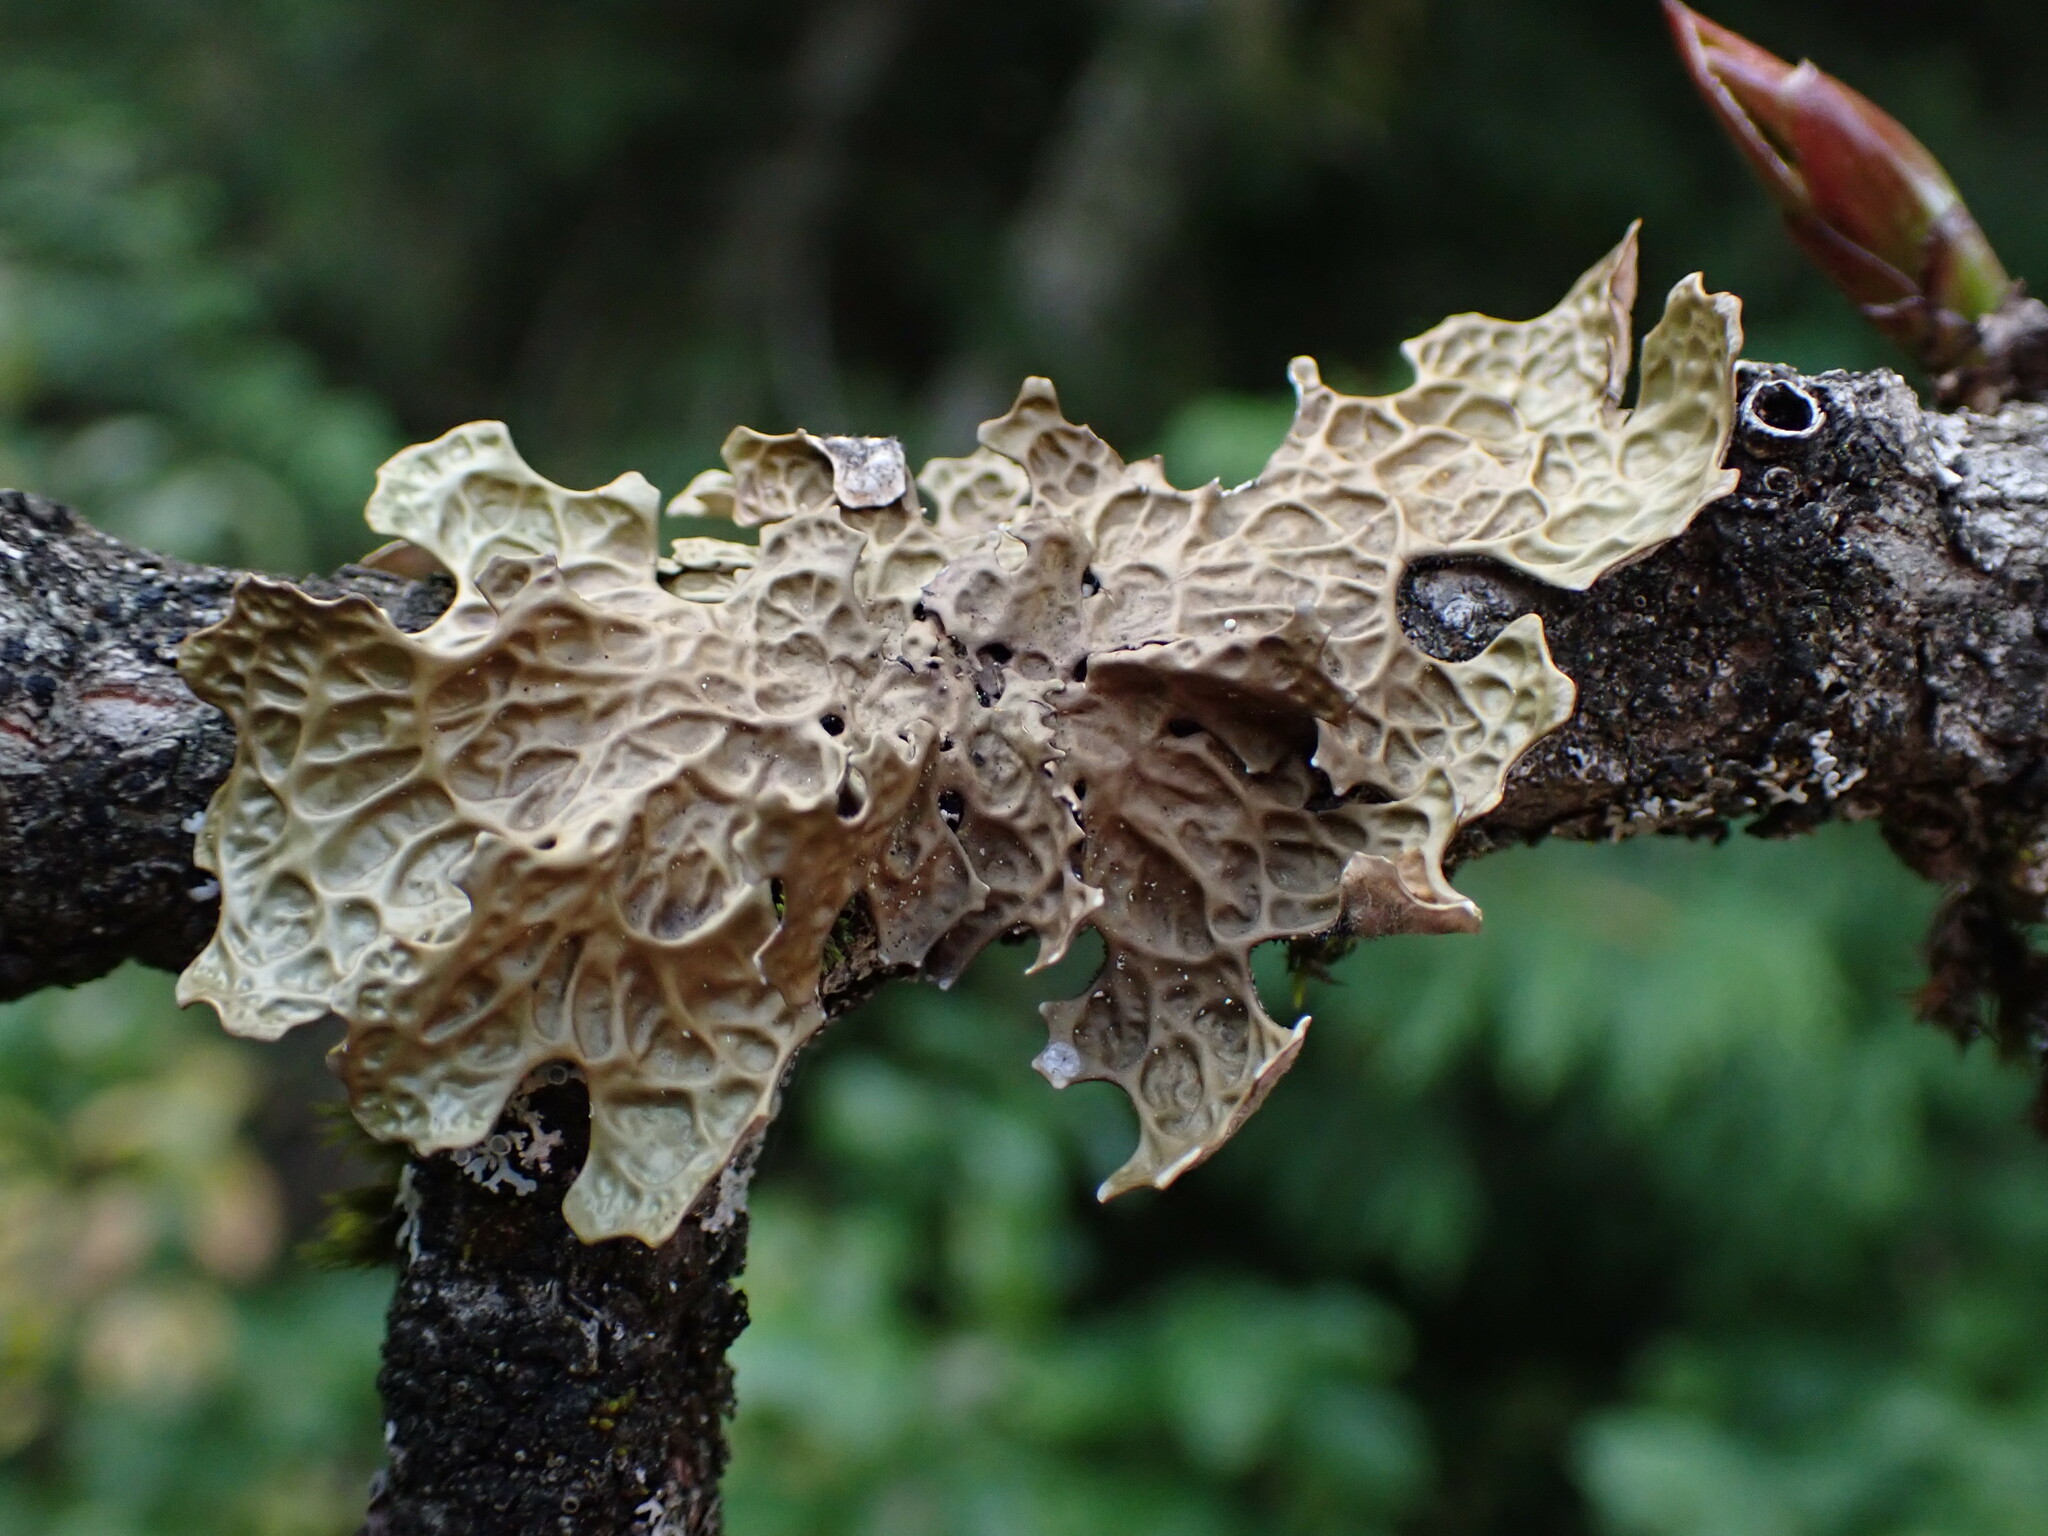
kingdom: Fungi
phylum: Ascomycota
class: Lecanoromycetes
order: Peltigerales
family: Lobariaceae
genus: Lobaria
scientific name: Lobaria pulmonaria
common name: Lungwort
